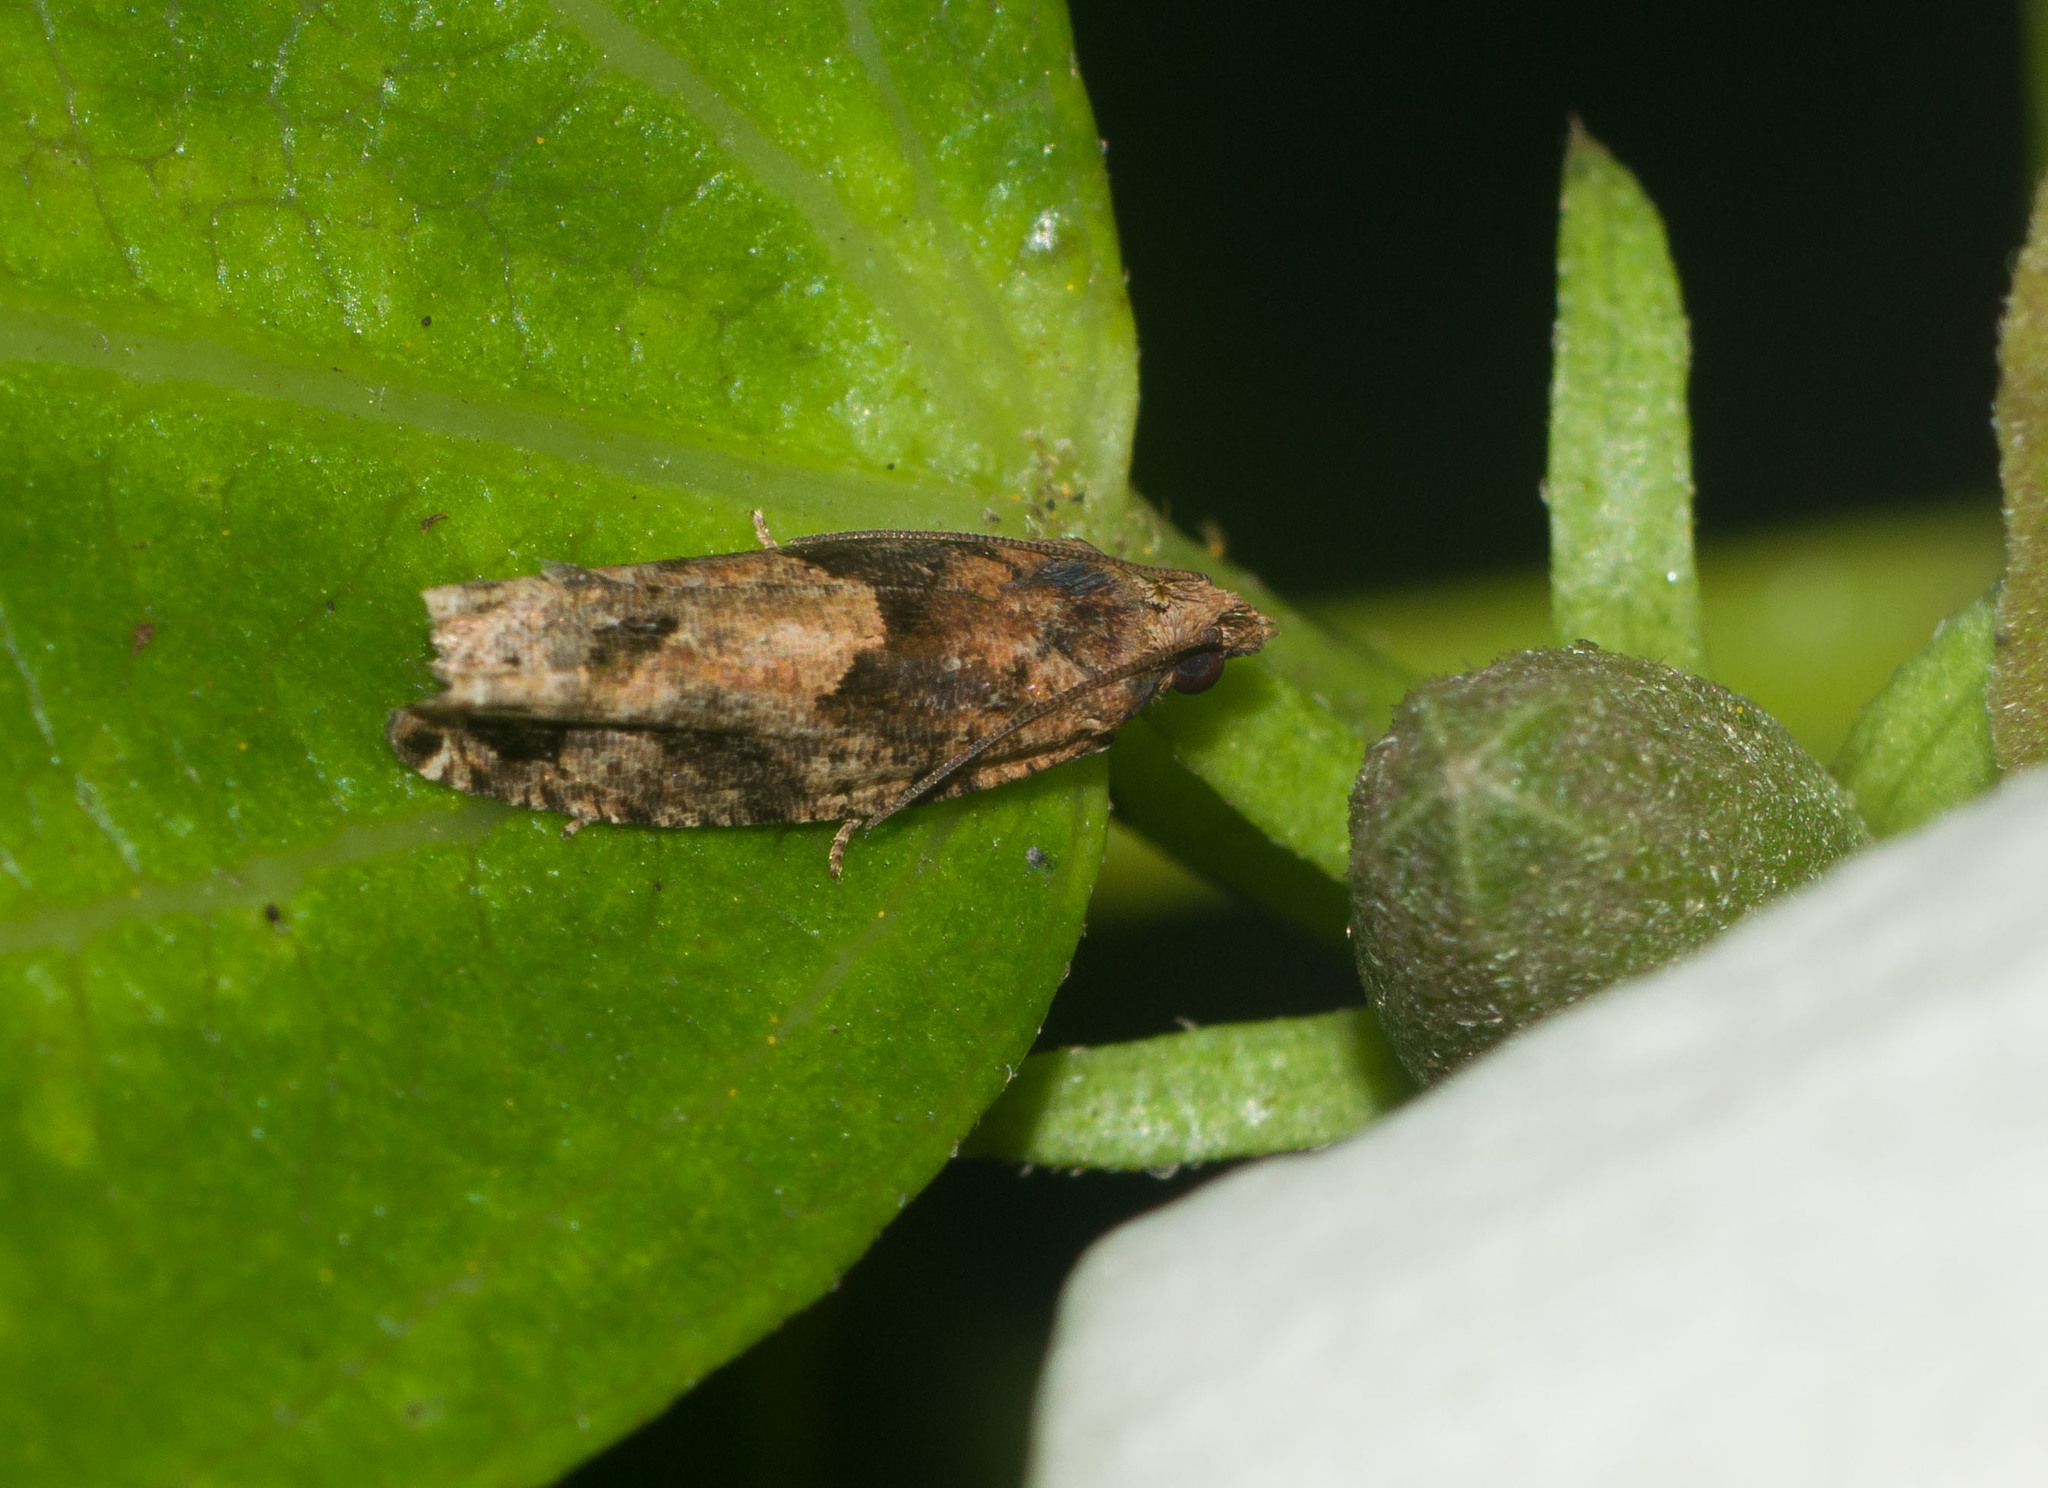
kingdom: Animalia
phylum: Arthropoda
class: Insecta
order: Lepidoptera
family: Tortricidae
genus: Crocidosema
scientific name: Crocidosema marcidellum
